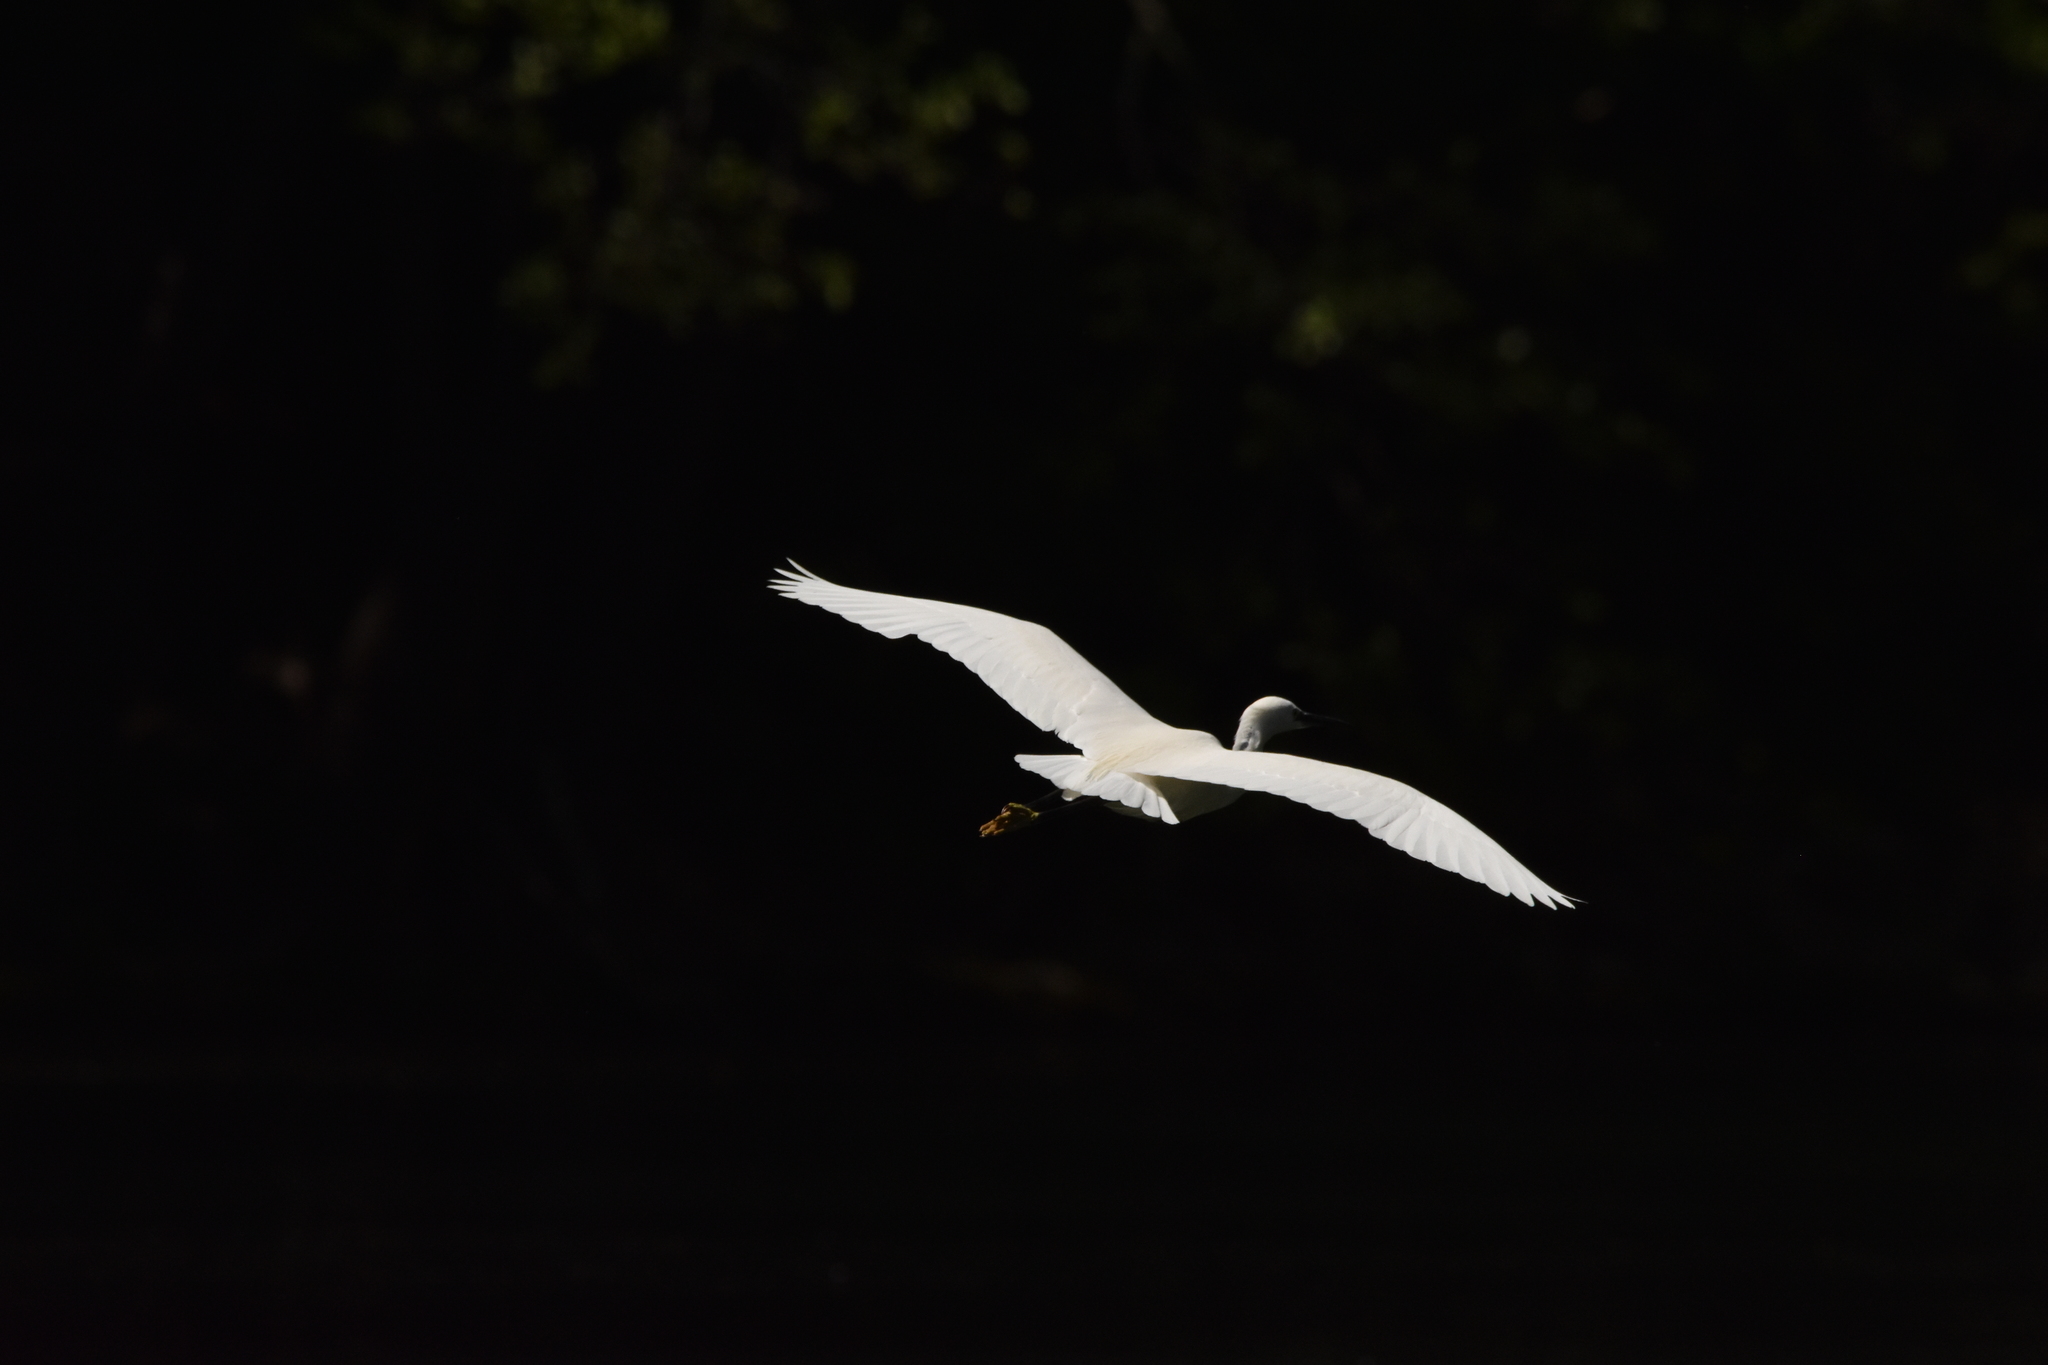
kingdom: Animalia
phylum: Chordata
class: Aves
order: Pelecaniformes
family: Ardeidae
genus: Egretta
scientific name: Egretta garzetta
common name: Little egret
